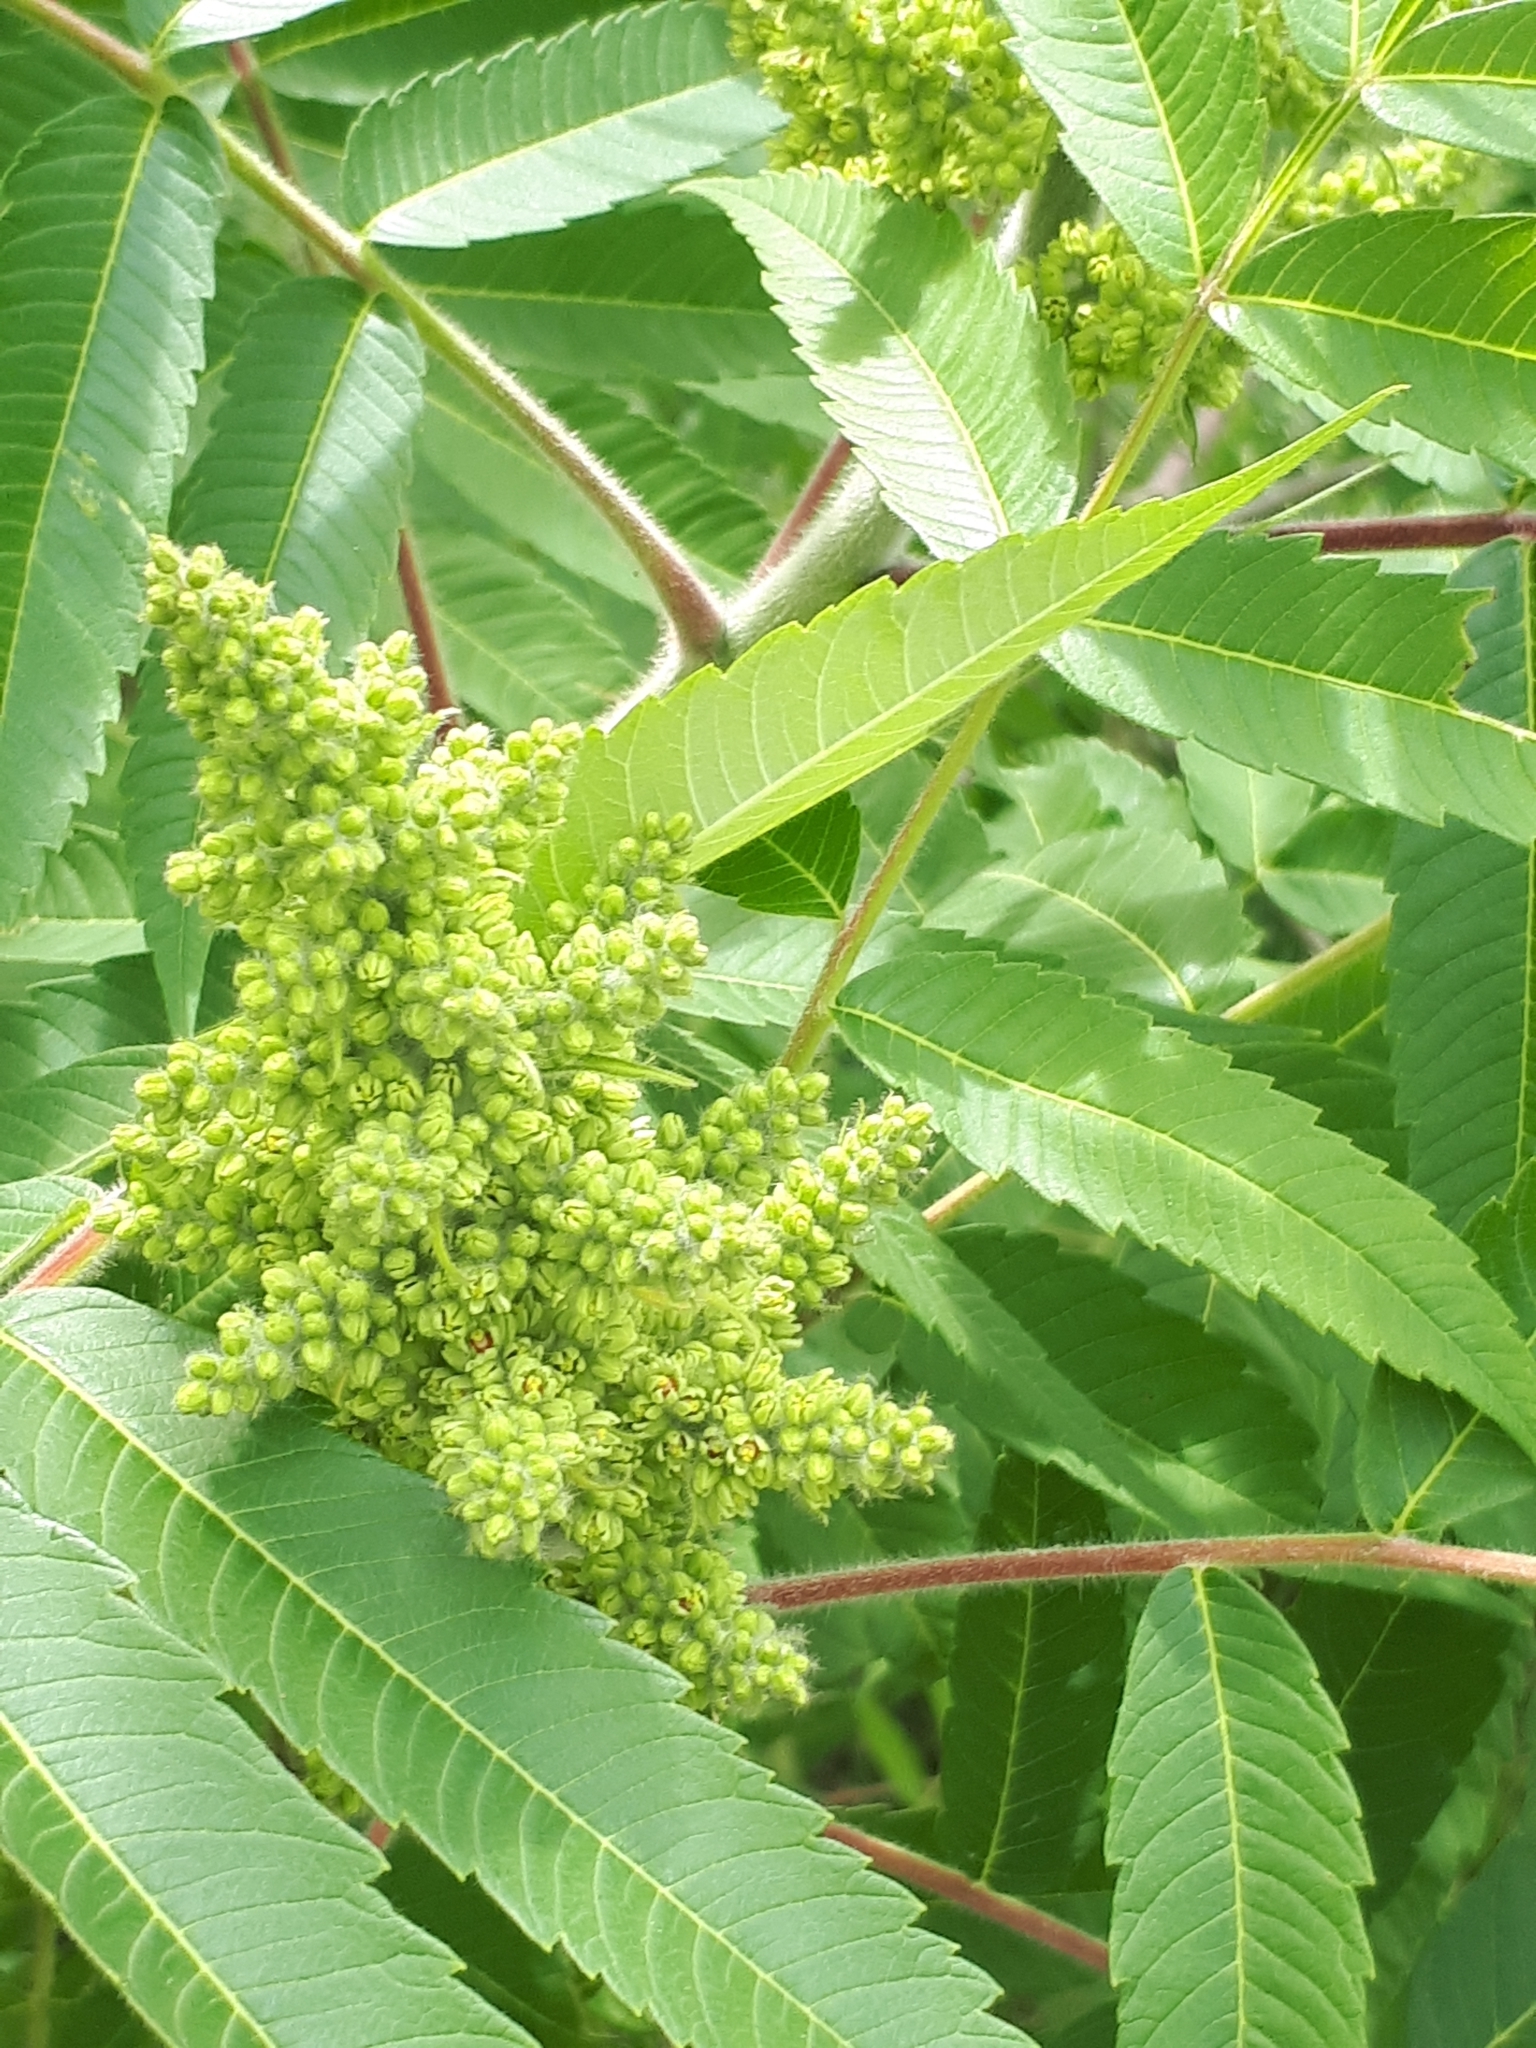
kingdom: Plantae
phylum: Tracheophyta
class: Magnoliopsida
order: Sapindales
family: Anacardiaceae
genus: Rhus
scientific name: Rhus typhina
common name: Staghorn sumac
